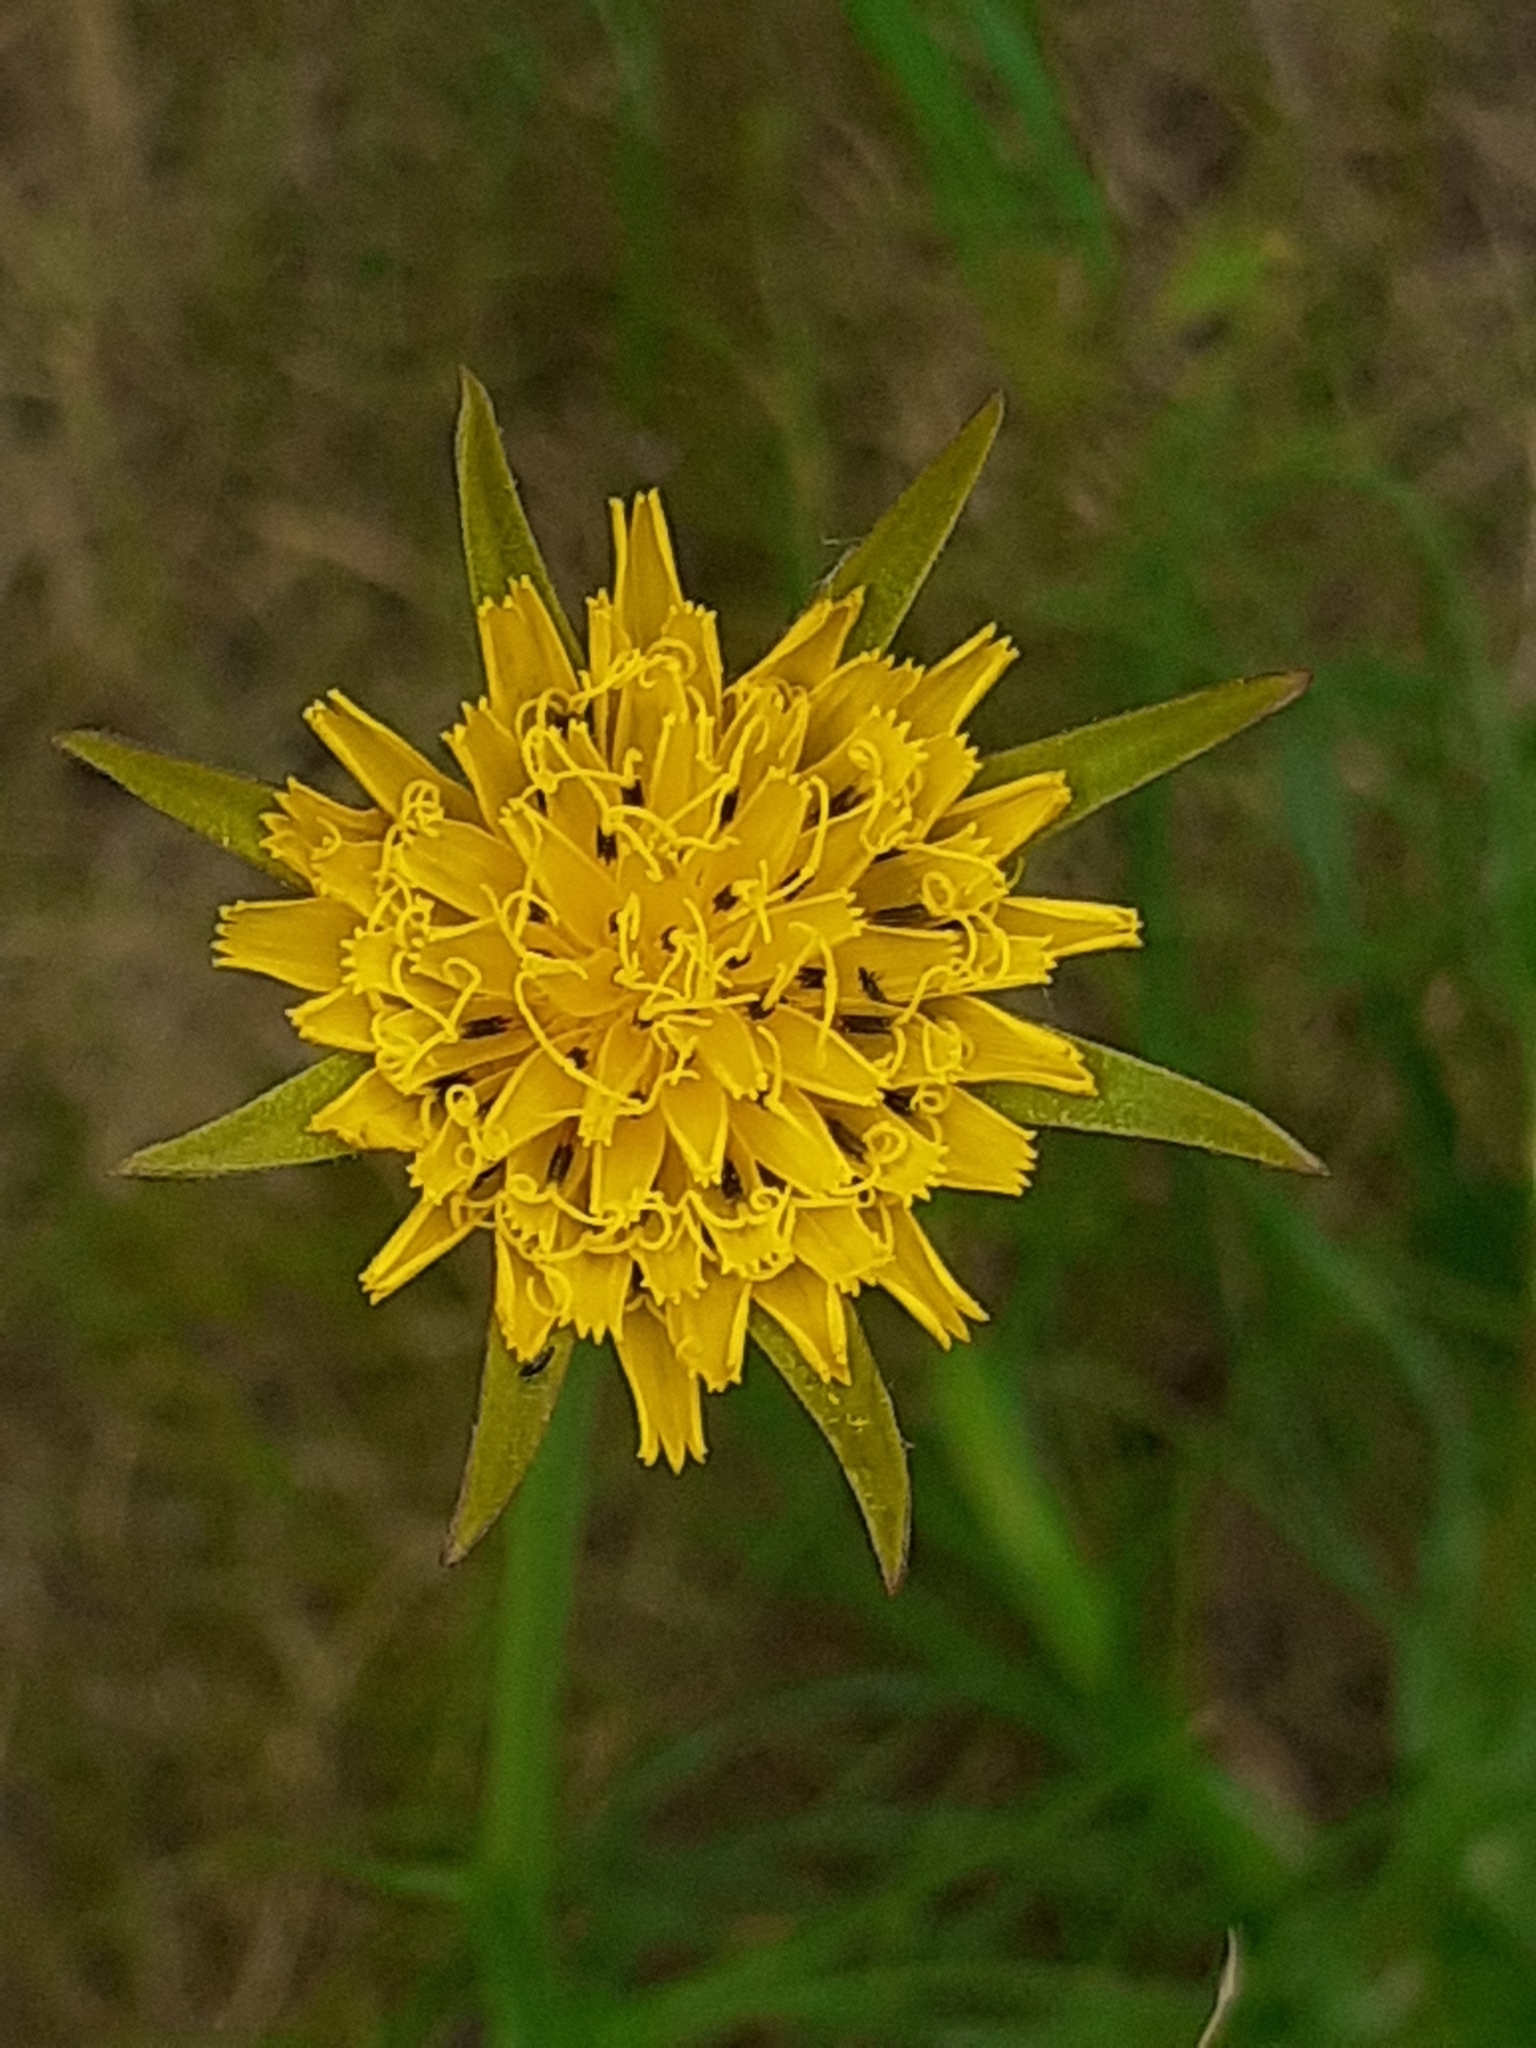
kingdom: Plantae
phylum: Tracheophyta
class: Magnoliopsida
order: Asterales
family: Asteraceae
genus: Tragopogon
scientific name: Tragopogon pratensis
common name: Goat's-beard
